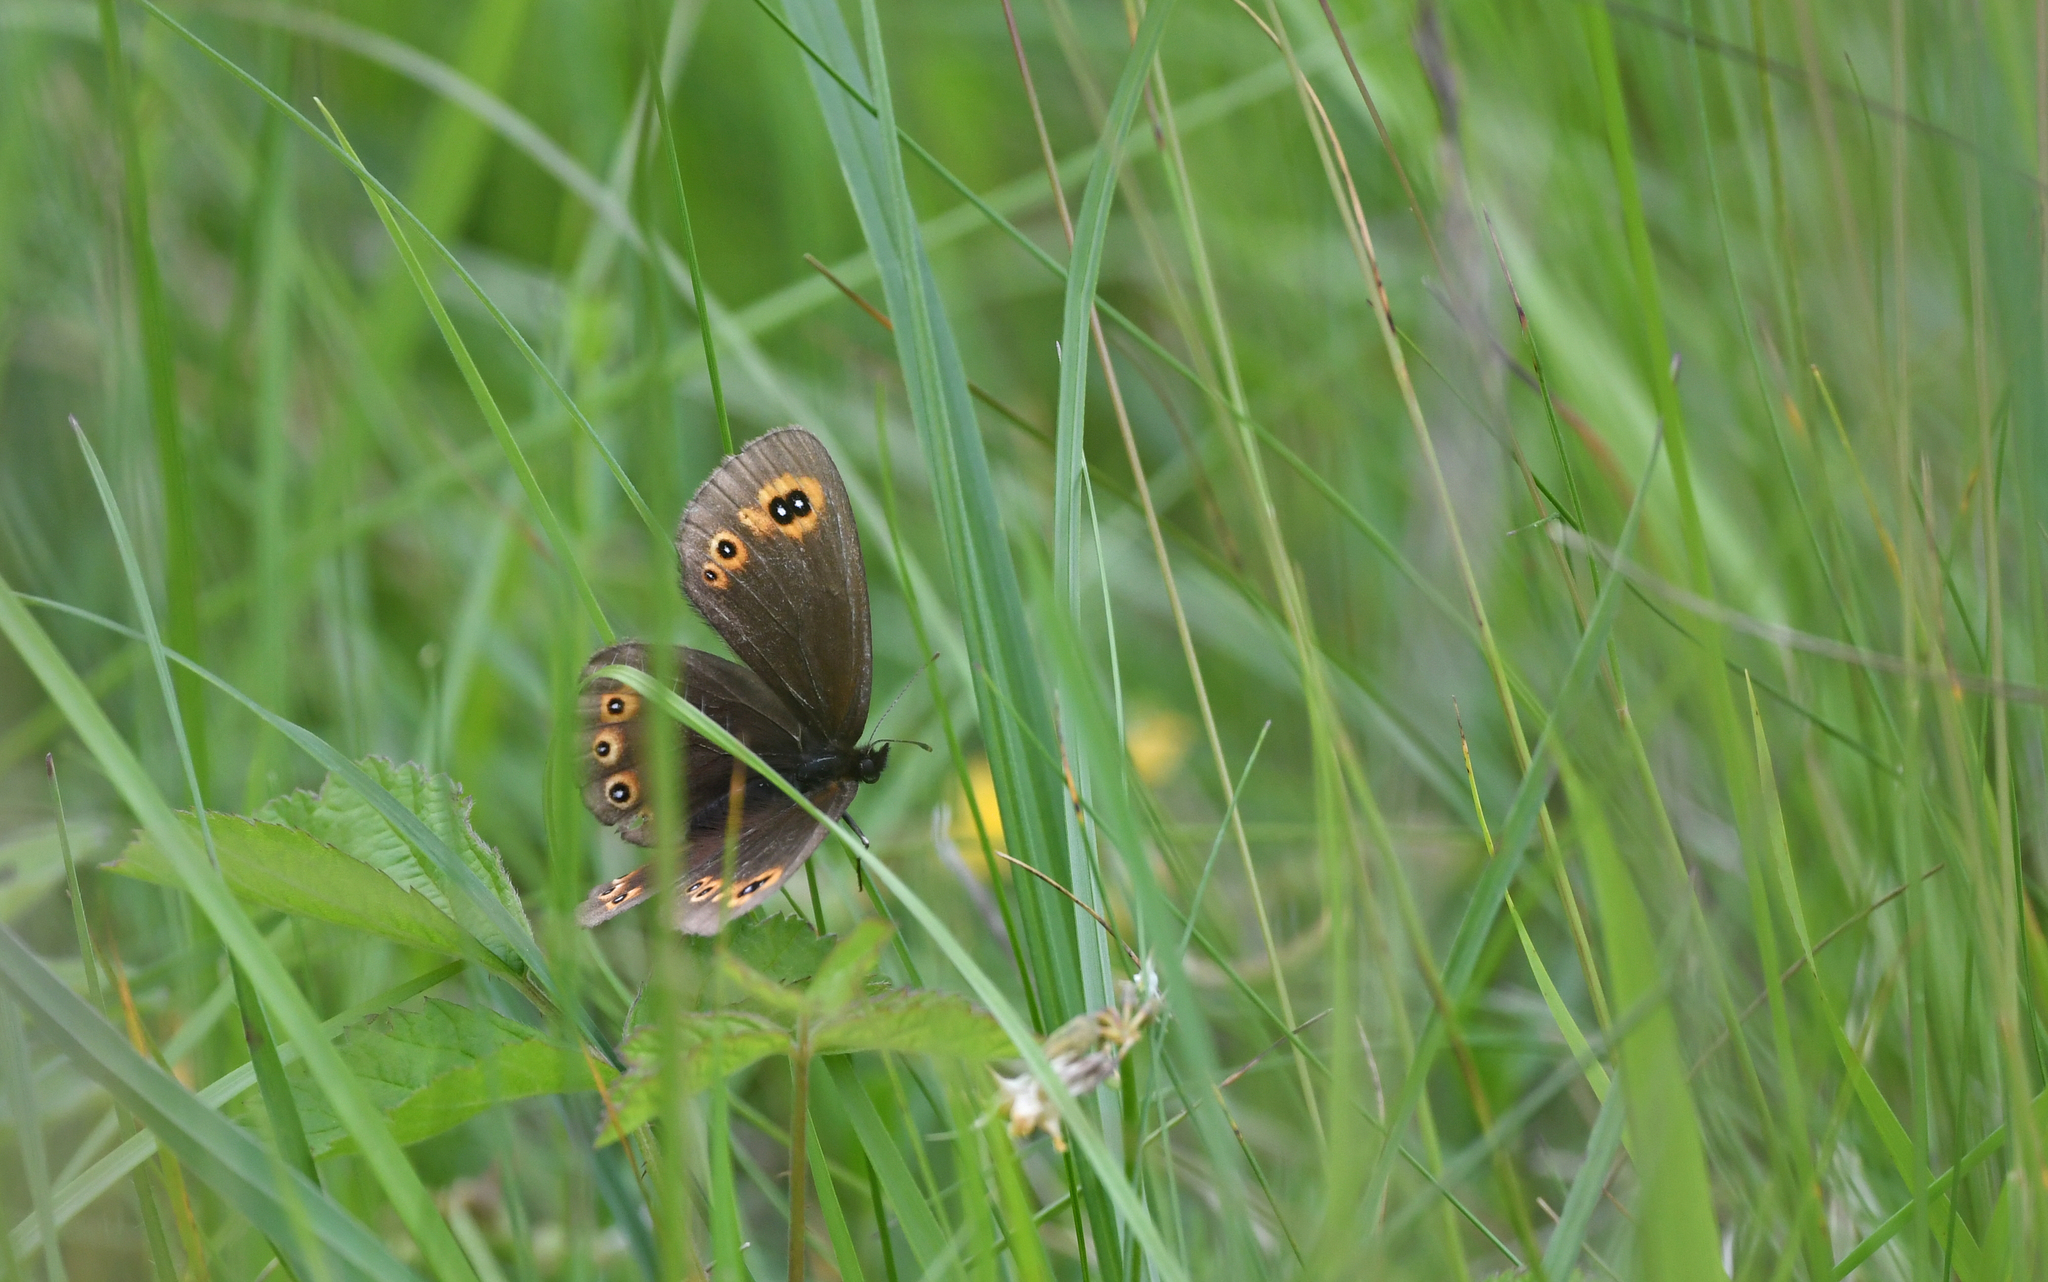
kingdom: Animalia
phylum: Arthropoda
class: Insecta
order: Lepidoptera
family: Nymphalidae
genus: Erebia
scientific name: Erebia medusa
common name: Woodland ringlet
